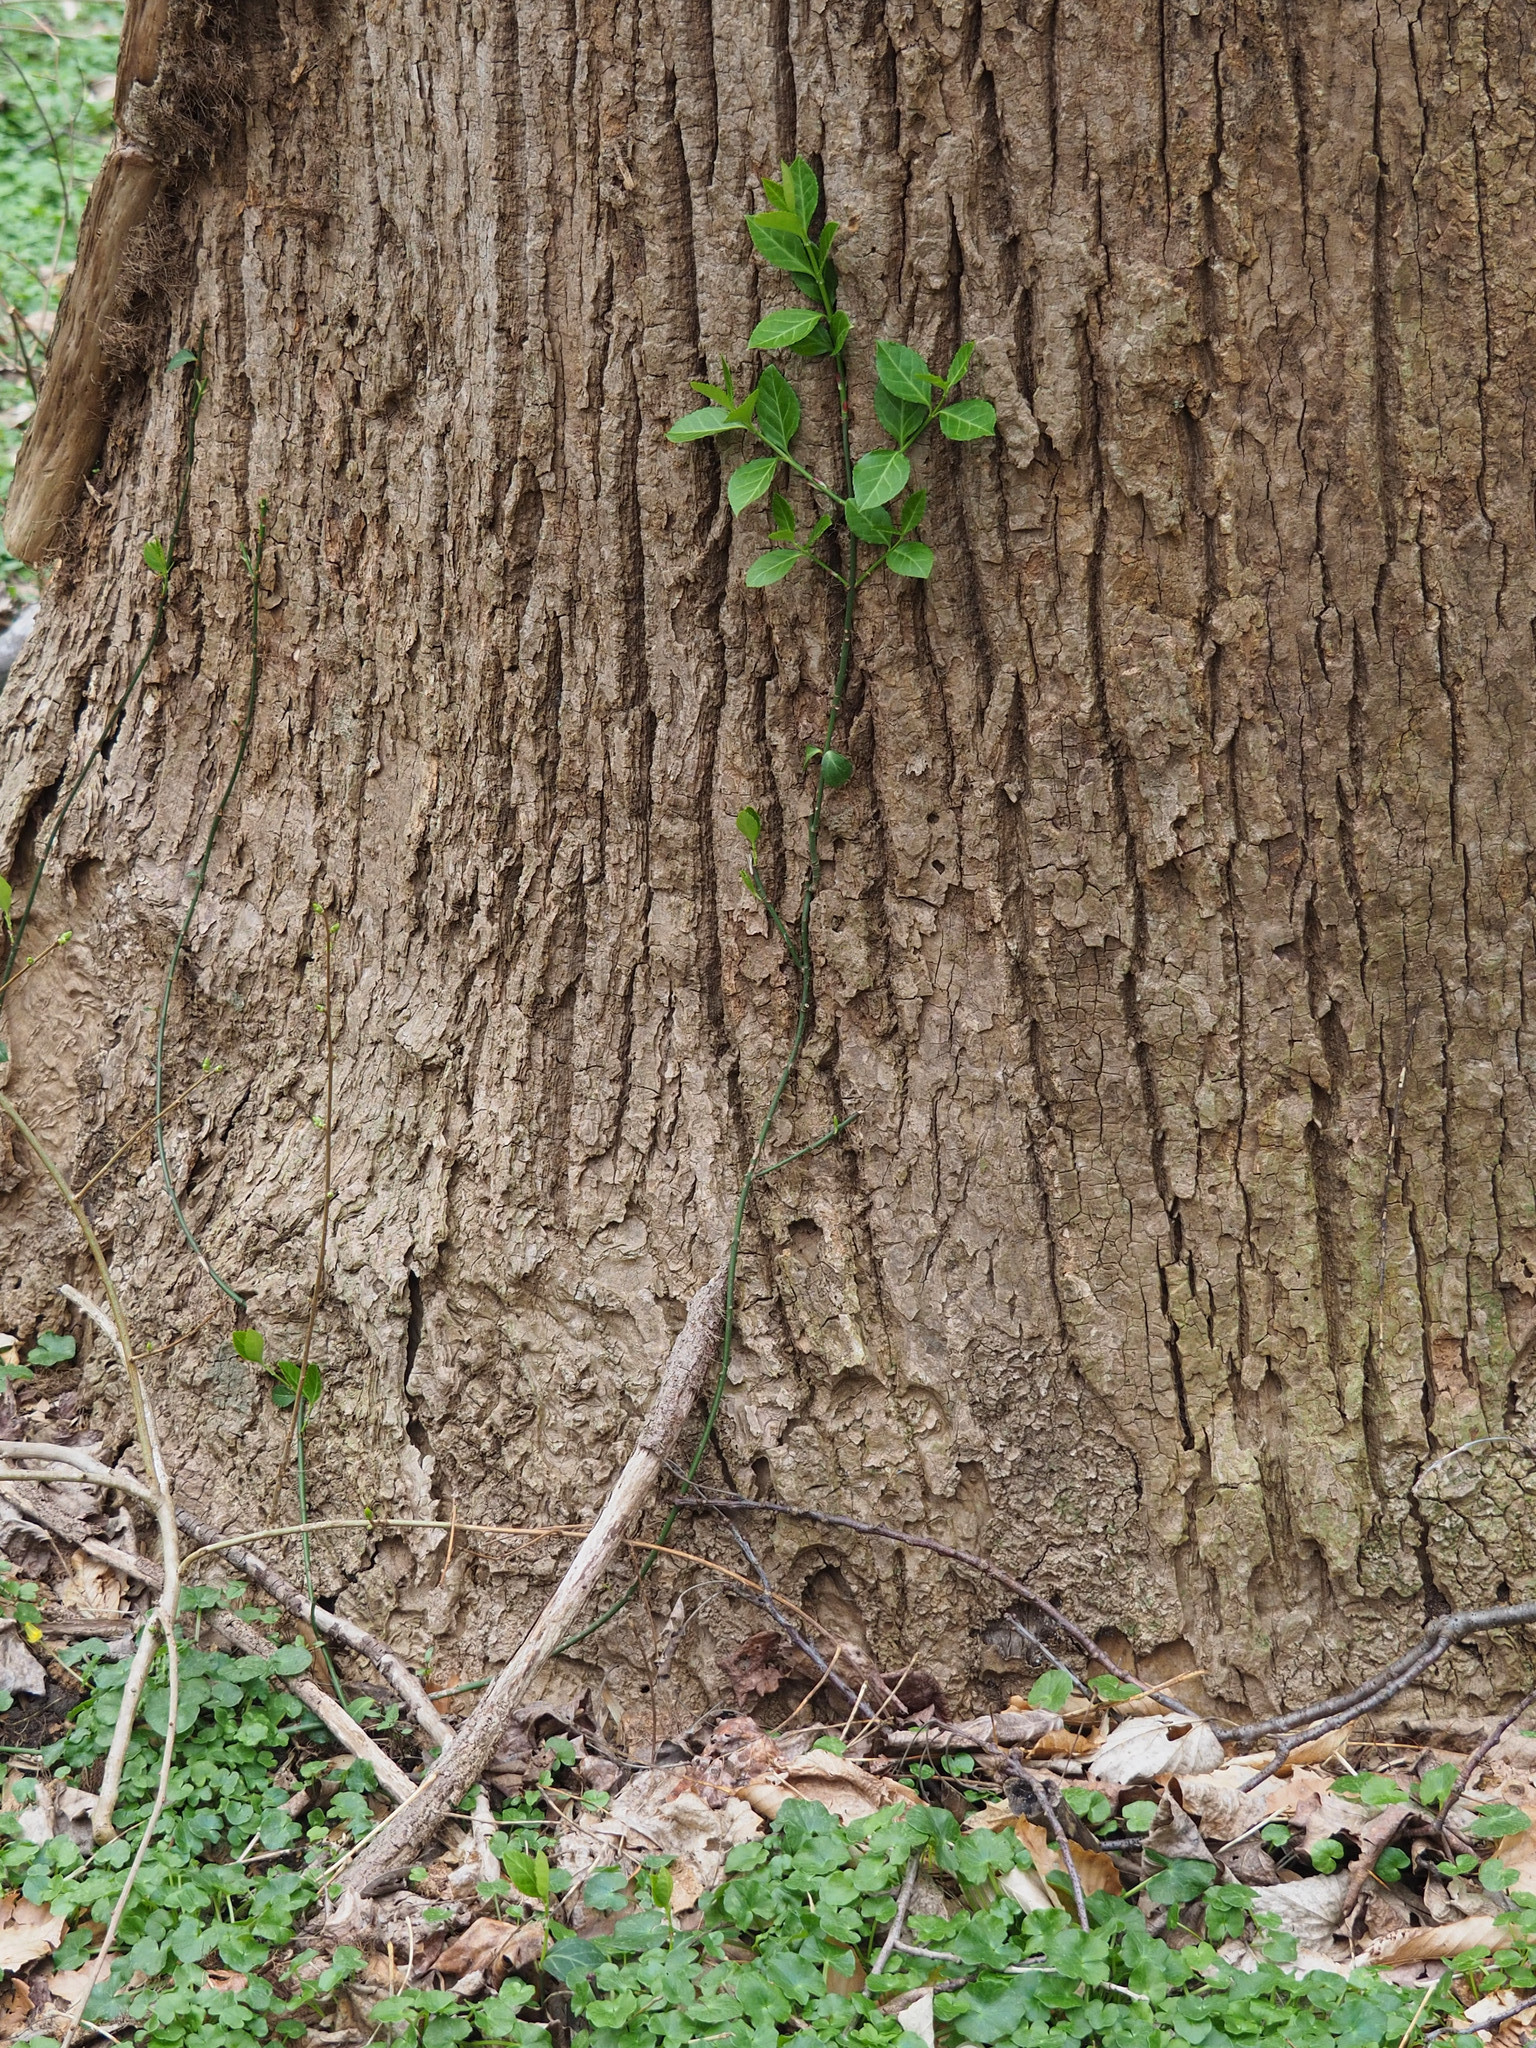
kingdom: Plantae
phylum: Tracheophyta
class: Magnoliopsida
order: Celastrales
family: Celastraceae
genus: Euonymus
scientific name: Euonymus fortunei
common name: Climbing euonymus
